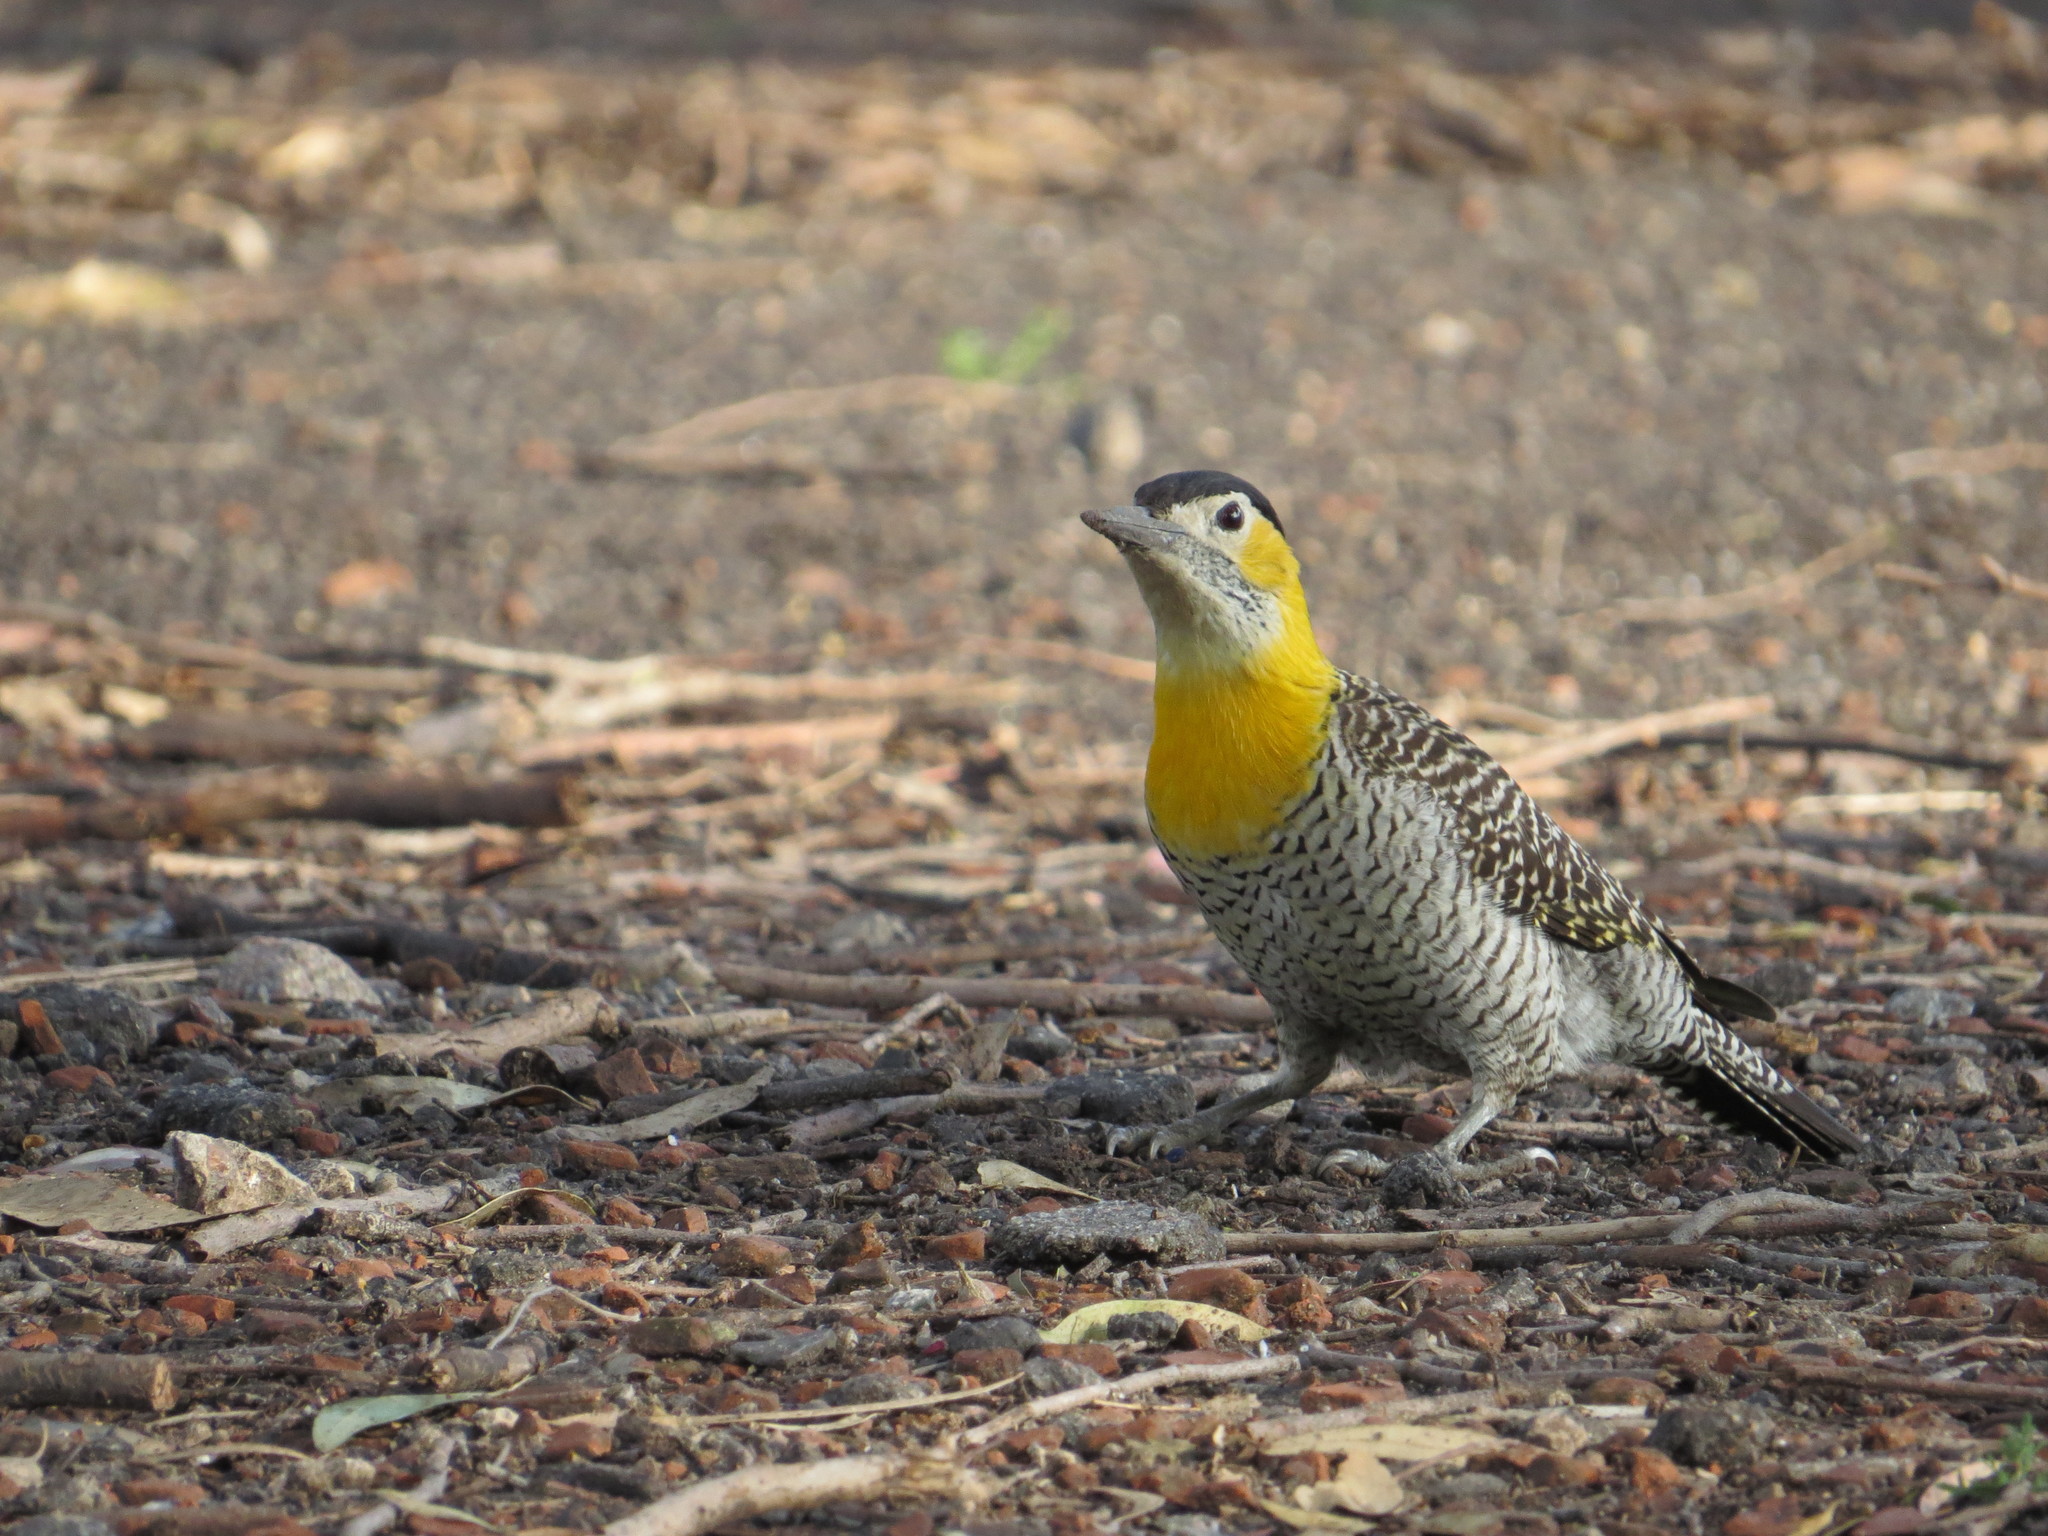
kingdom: Animalia
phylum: Chordata
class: Aves
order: Piciformes
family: Picidae
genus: Colaptes
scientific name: Colaptes campestris
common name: Campo flicker
